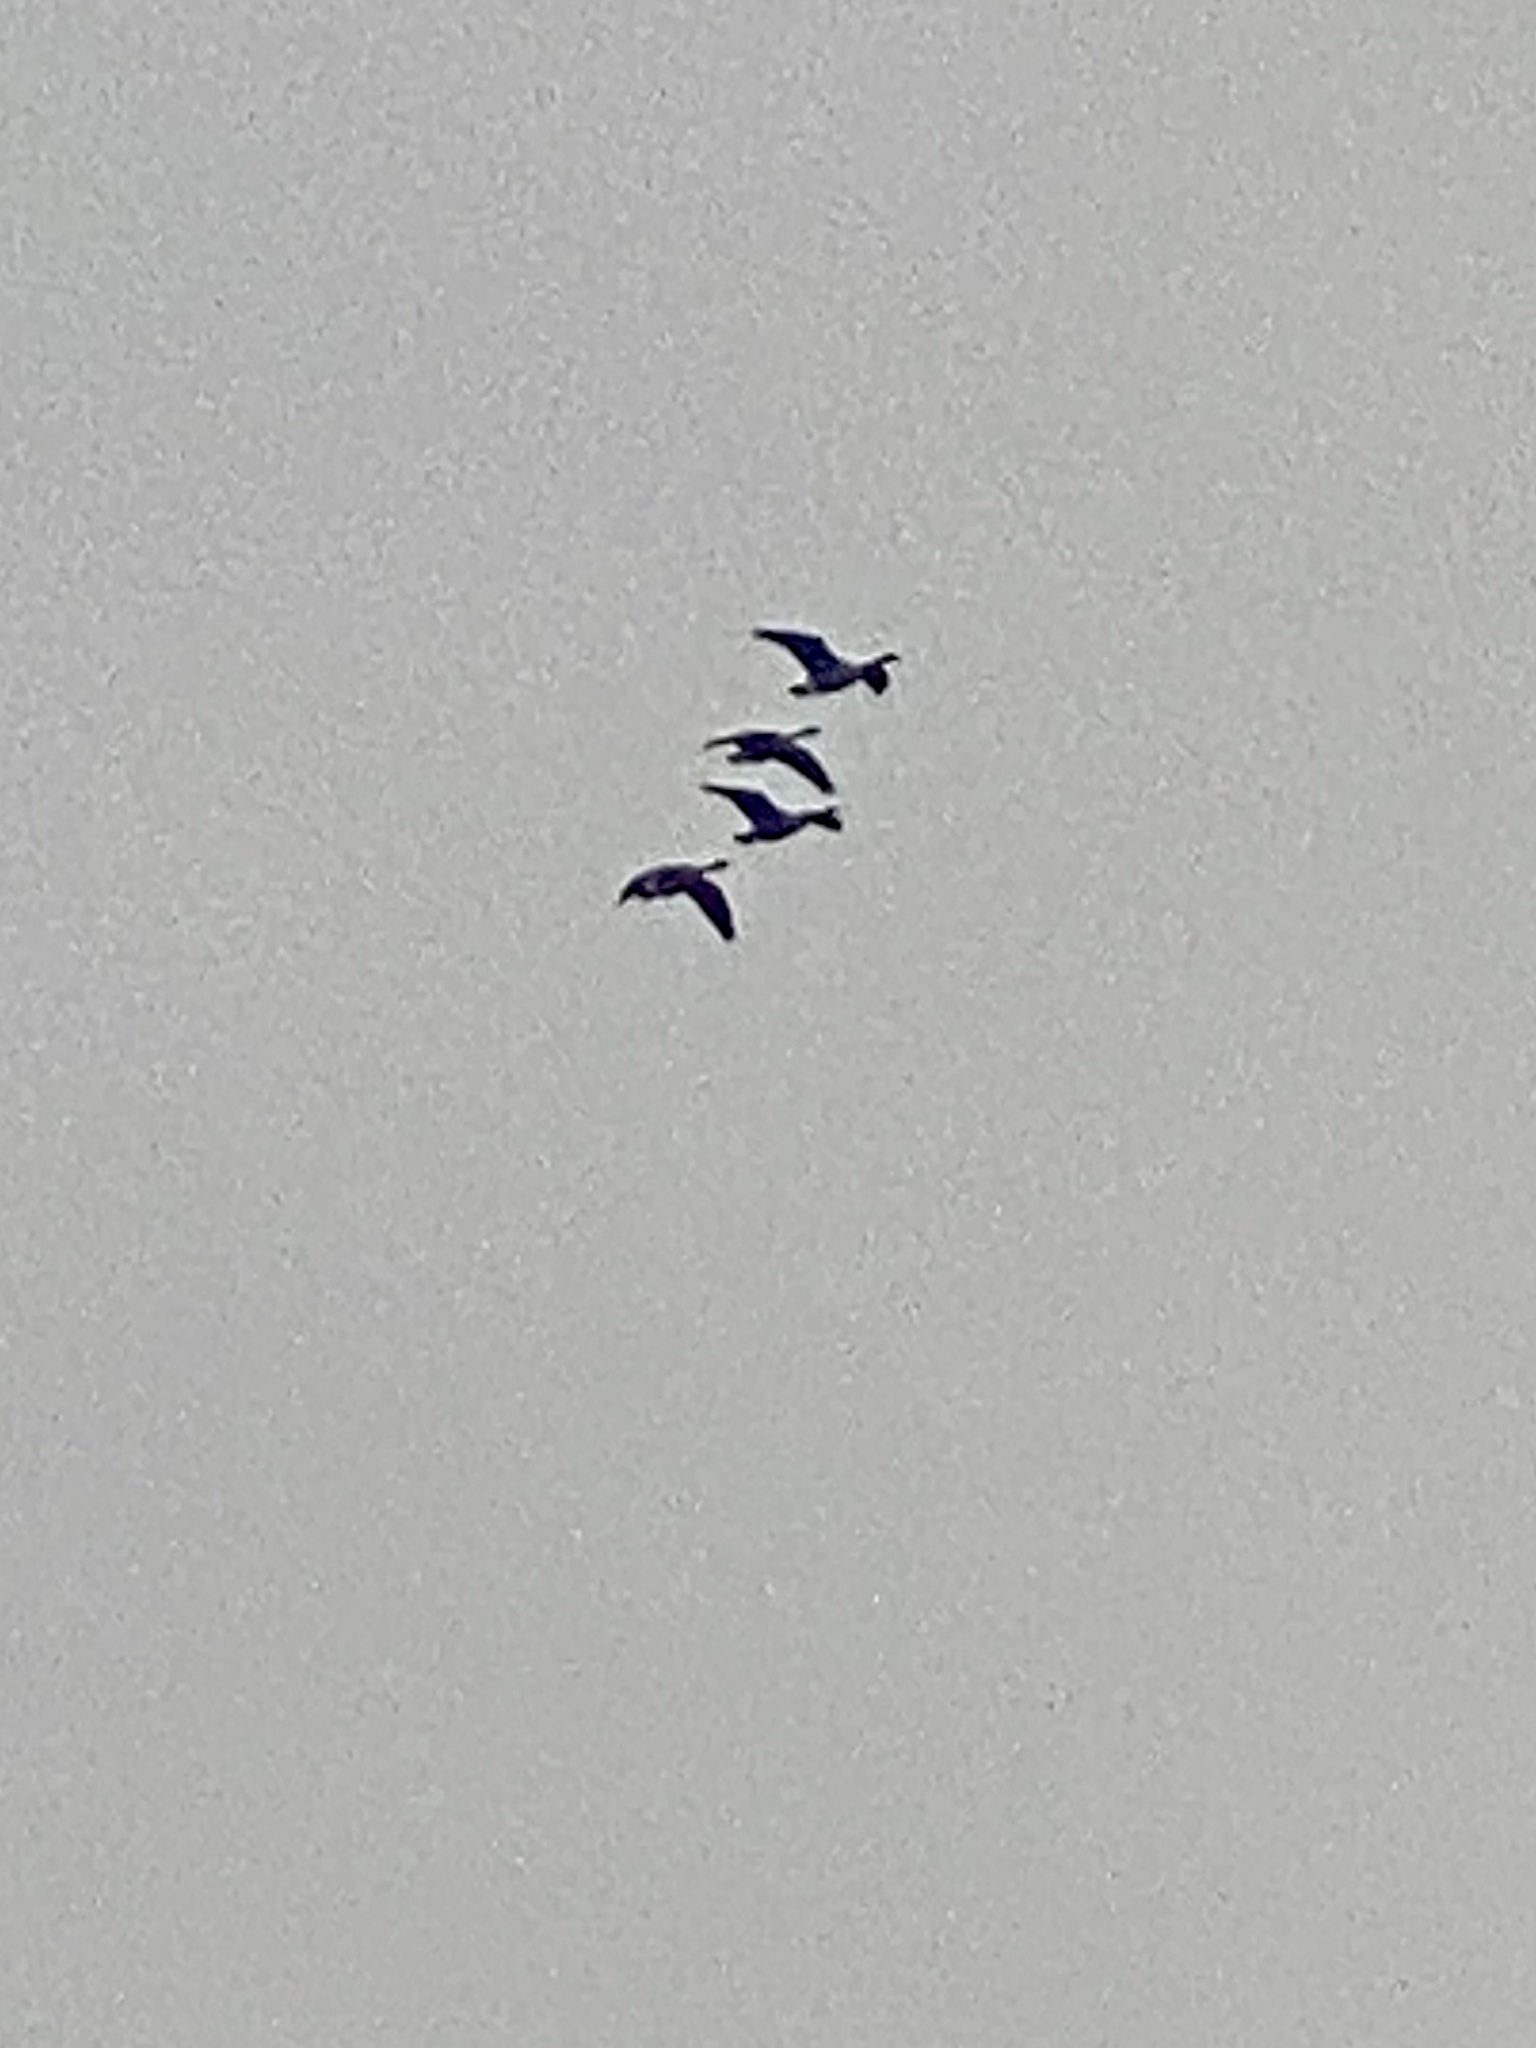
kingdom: Animalia
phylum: Chordata
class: Aves
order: Anseriformes
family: Anatidae
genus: Branta
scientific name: Branta canadensis
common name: Canada goose
